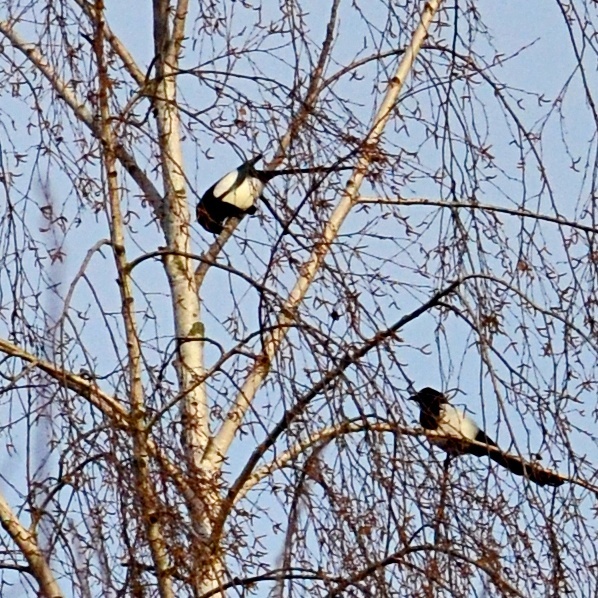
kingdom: Animalia
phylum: Chordata
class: Aves
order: Passeriformes
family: Corvidae
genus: Pica
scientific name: Pica pica
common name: Eurasian magpie
